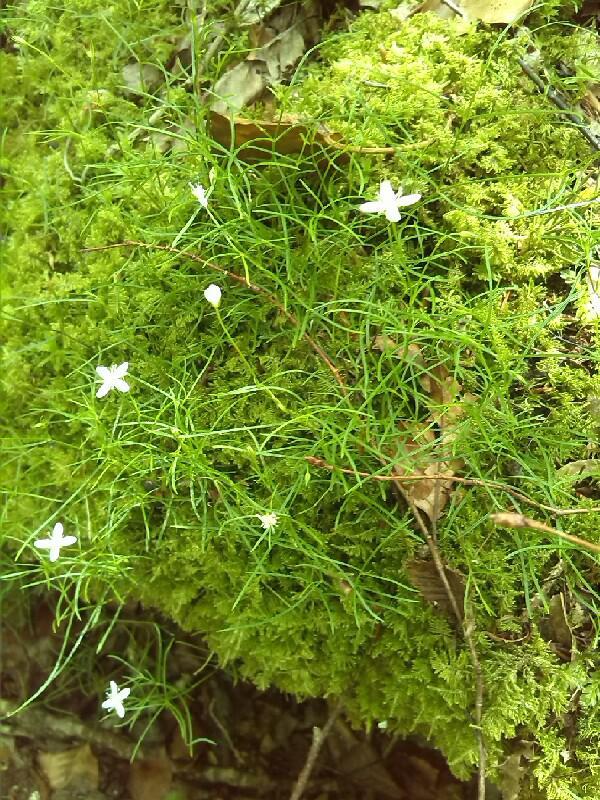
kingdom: Plantae
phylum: Tracheophyta
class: Magnoliopsida
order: Caryophyllales
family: Caryophyllaceae
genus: Moehringia
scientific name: Moehringia muscosa
